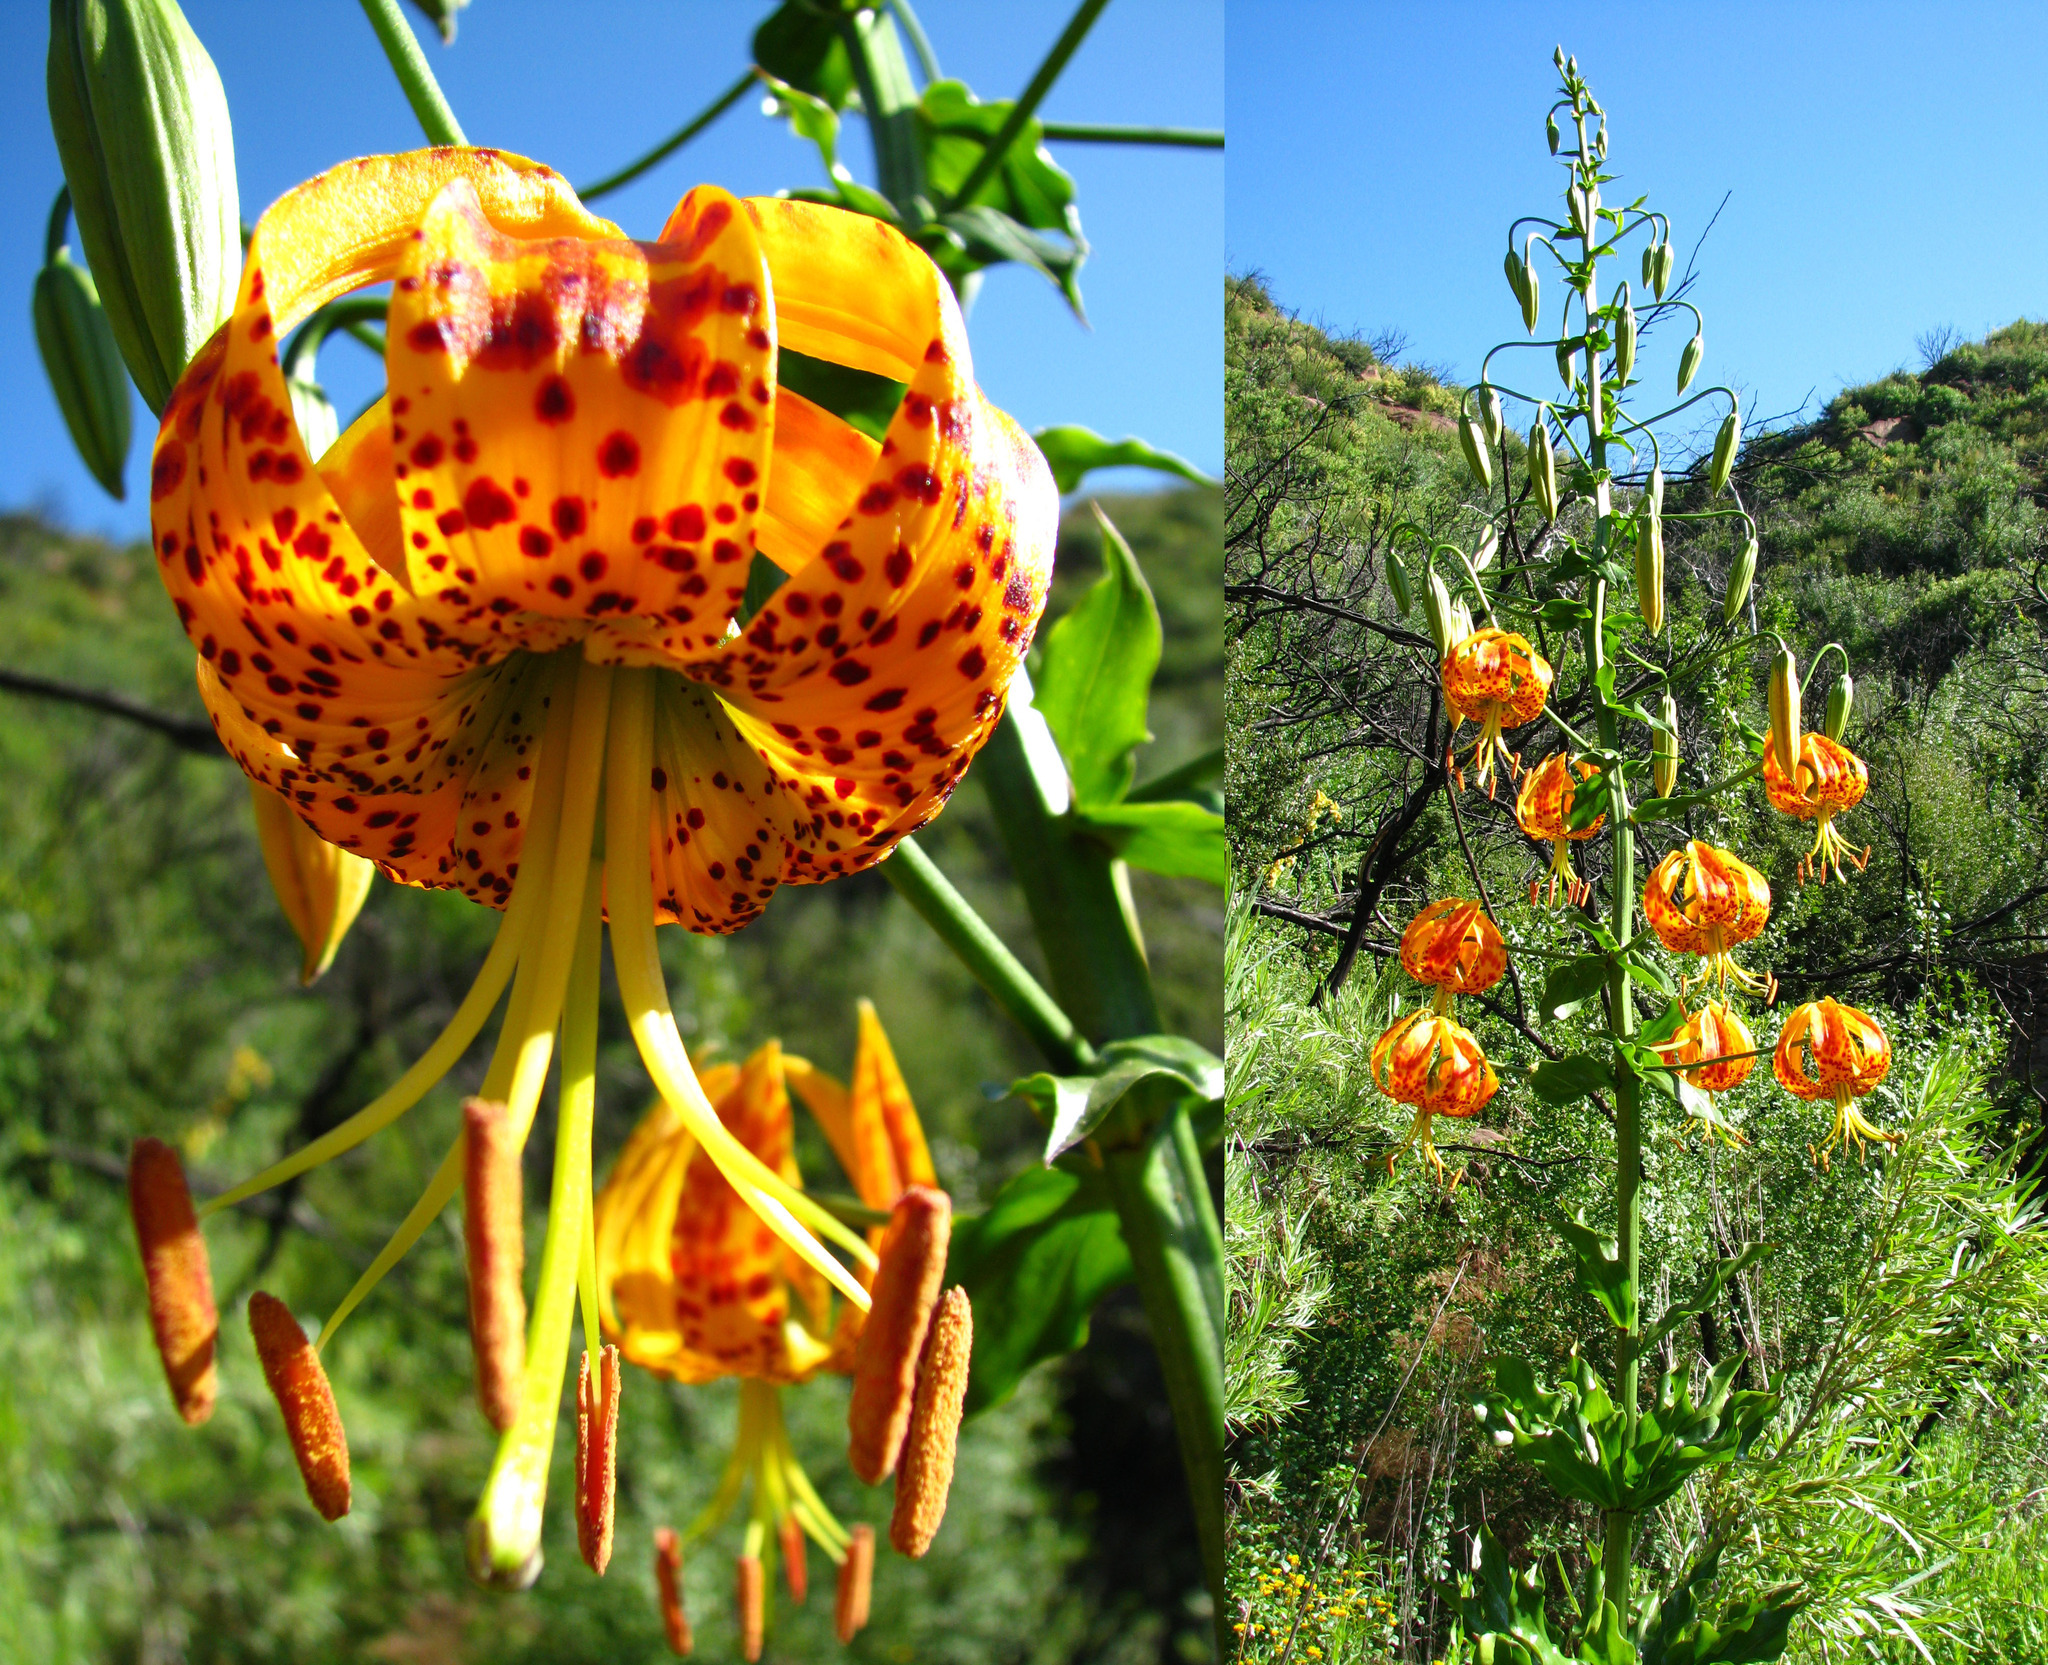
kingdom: Plantae
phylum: Tracheophyta
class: Liliopsida
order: Liliales
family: Liliaceae
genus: Lilium
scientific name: Lilium humboldtii
